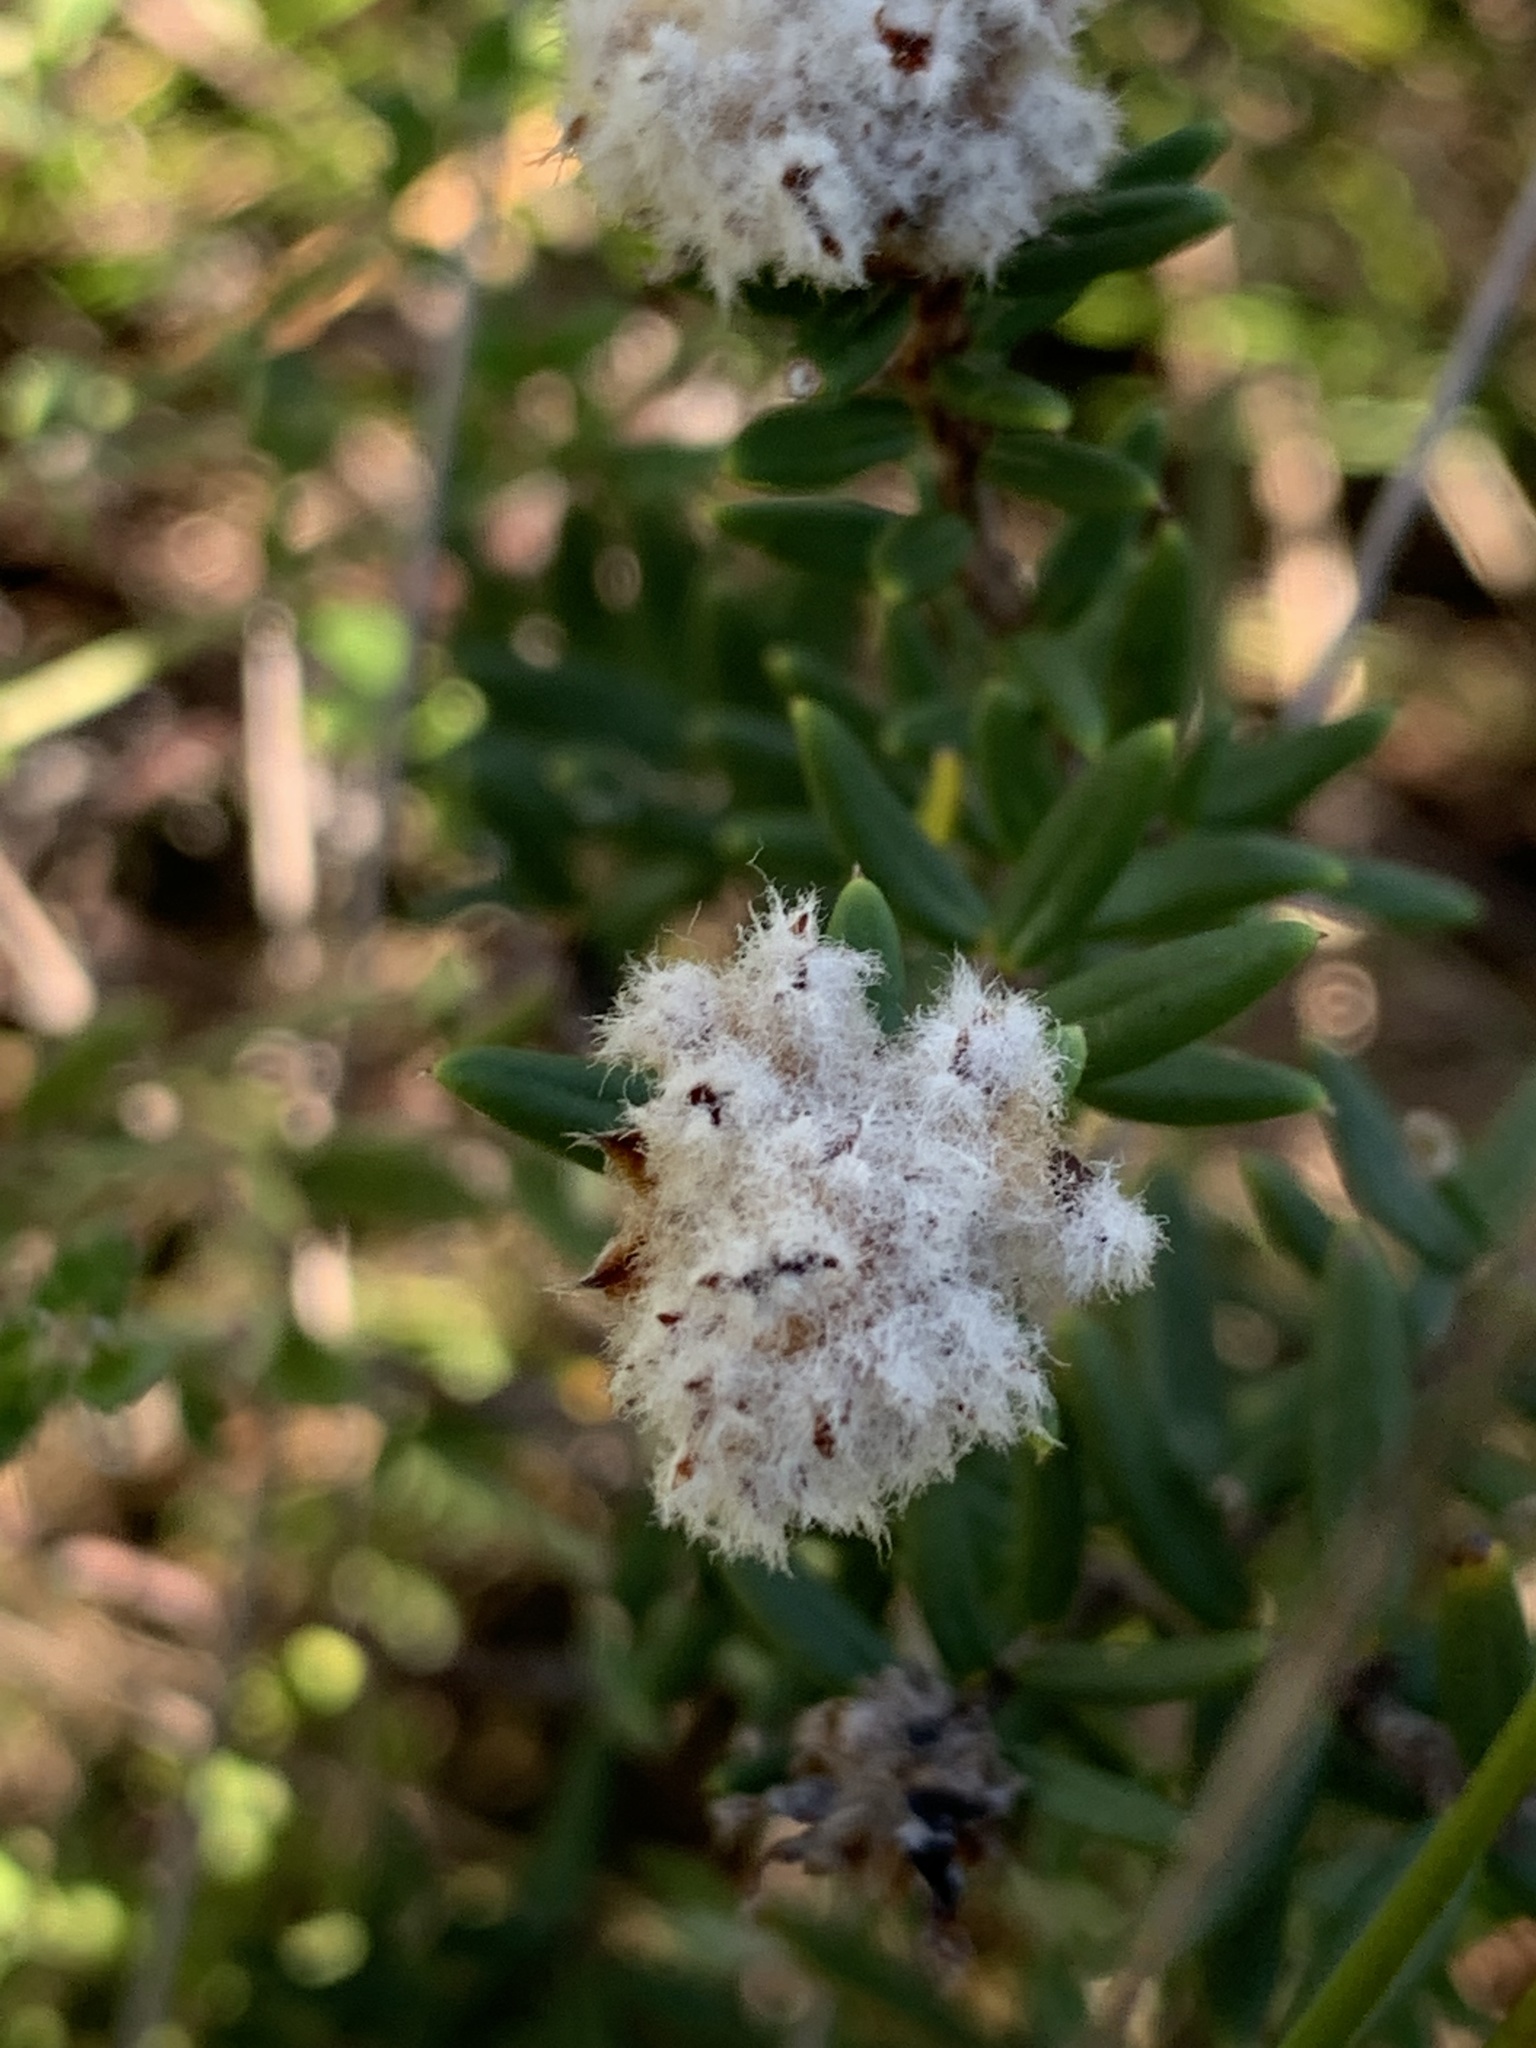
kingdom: Plantae
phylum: Tracheophyta
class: Magnoliopsida
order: Rosales
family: Rhamnaceae
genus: Spyridium
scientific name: Spyridium scortechinii
